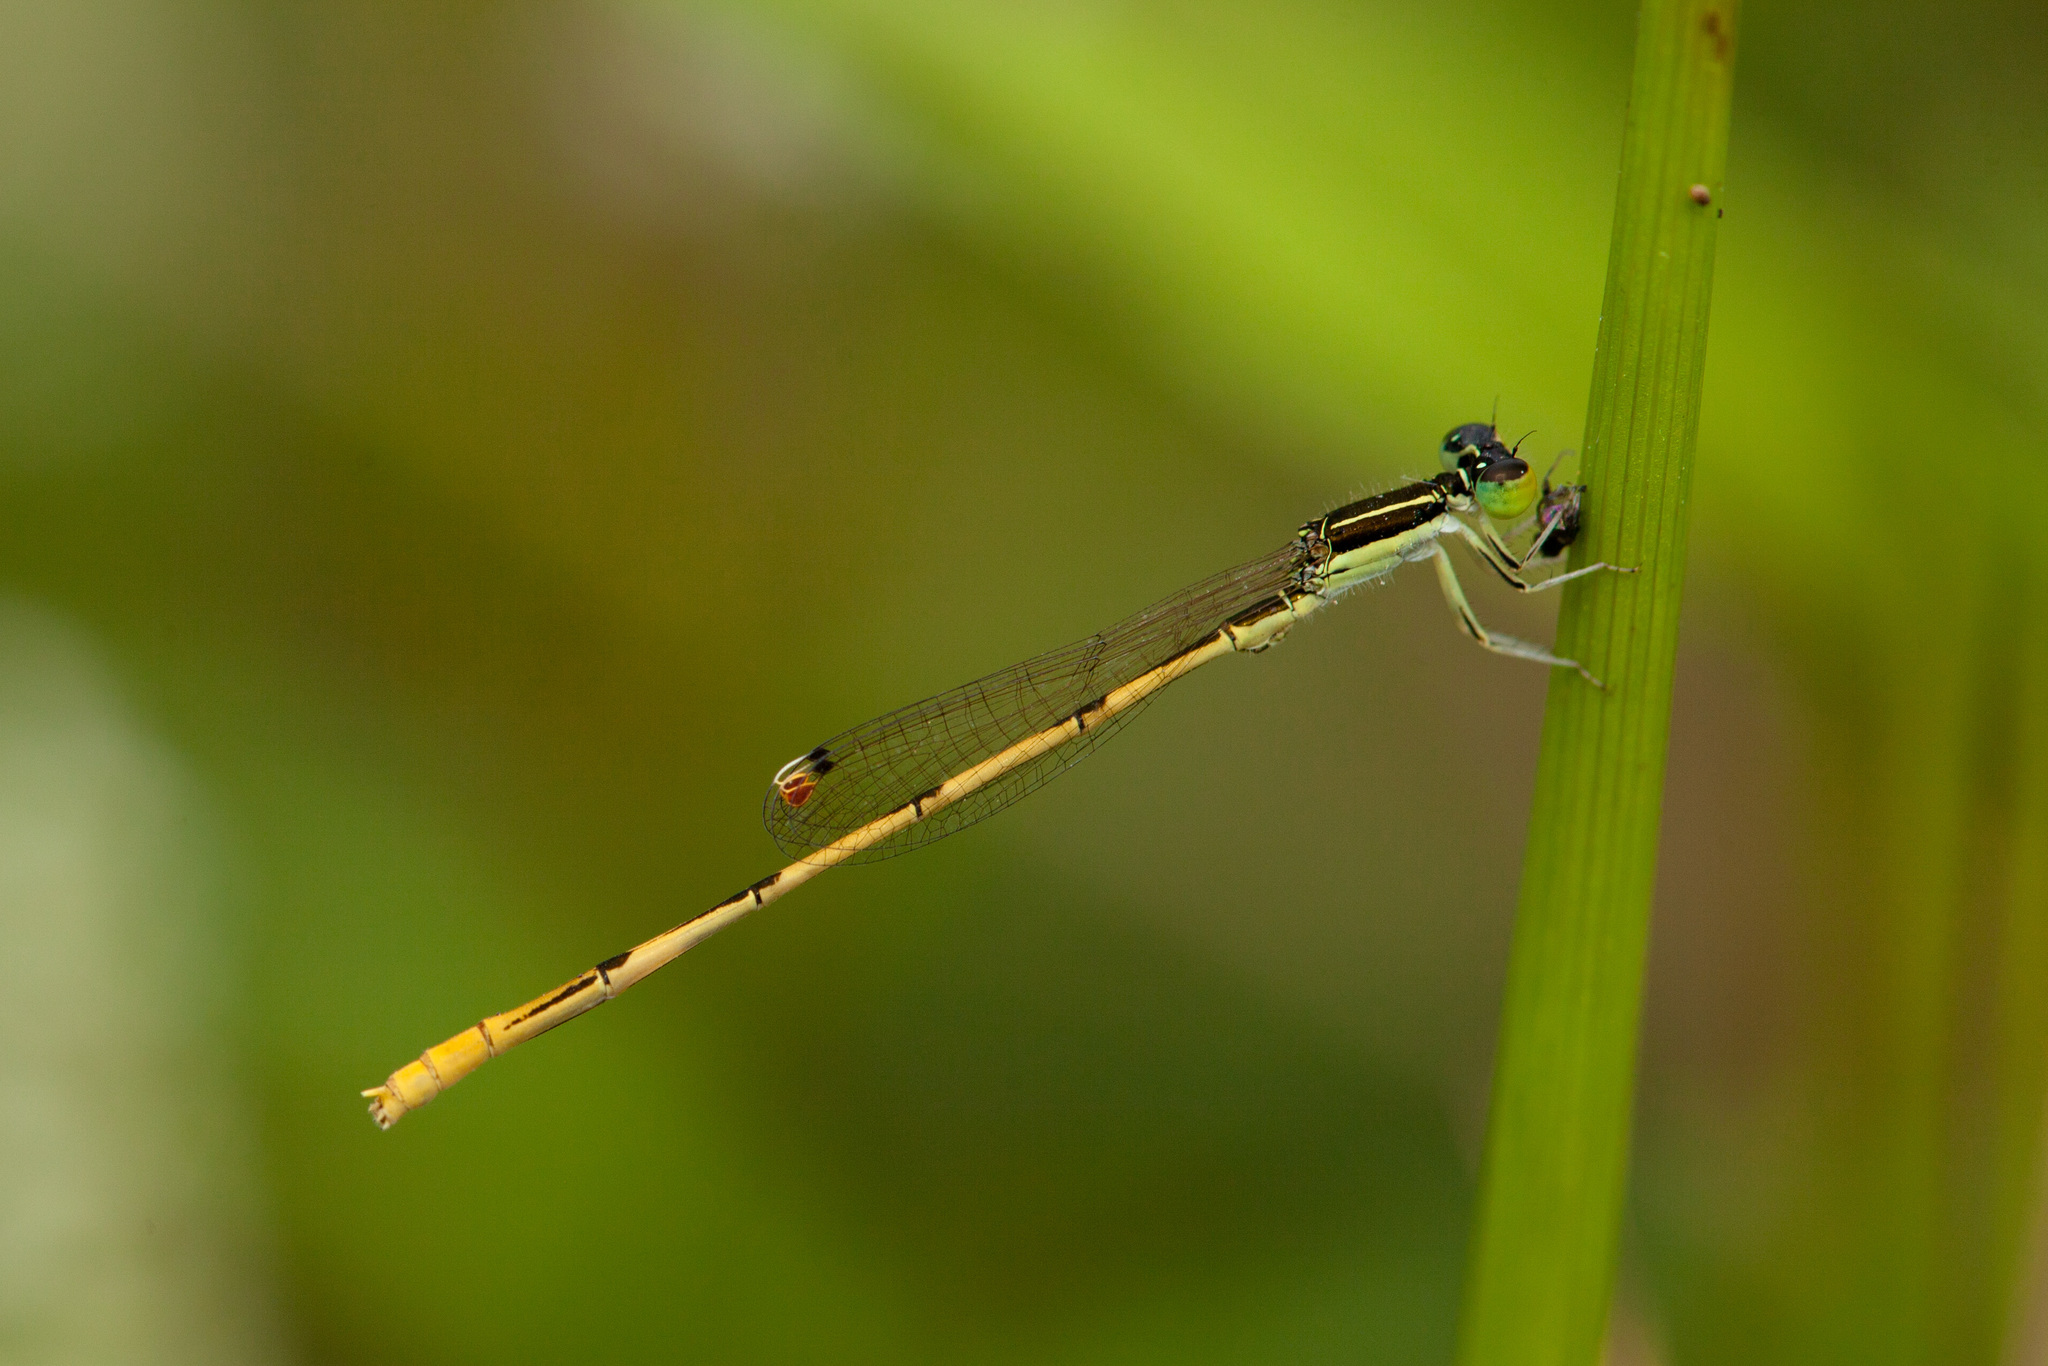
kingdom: Animalia
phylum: Arthropoda
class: Insecta
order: Odonata
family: Coenagrionidae
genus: Ischnura
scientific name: Ischnura hastata
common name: Citrine forktail
